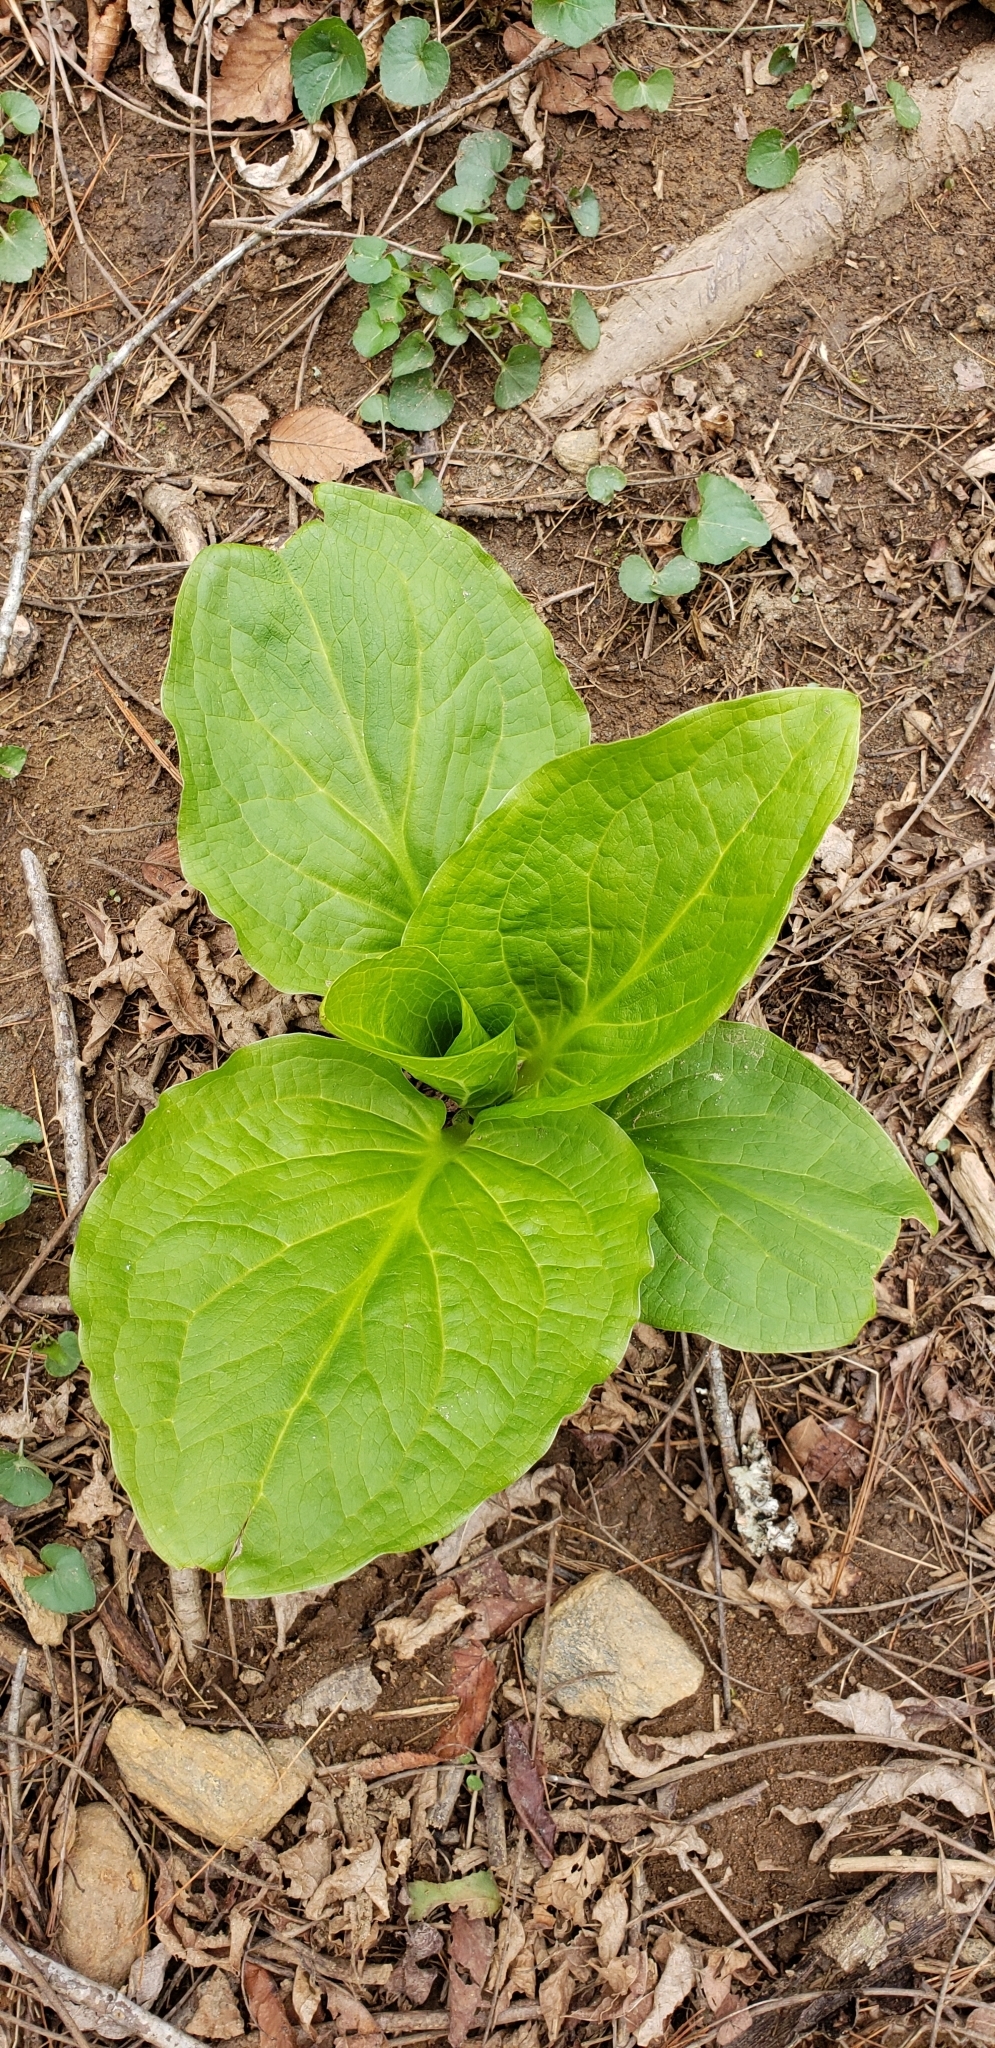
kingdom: Plantae
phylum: Tracheophyta
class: Liliopsida
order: Alismatales
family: Araceae
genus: Symplocarpus
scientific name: Symplocarpus foetidus
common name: Eastern skunk cabbage
